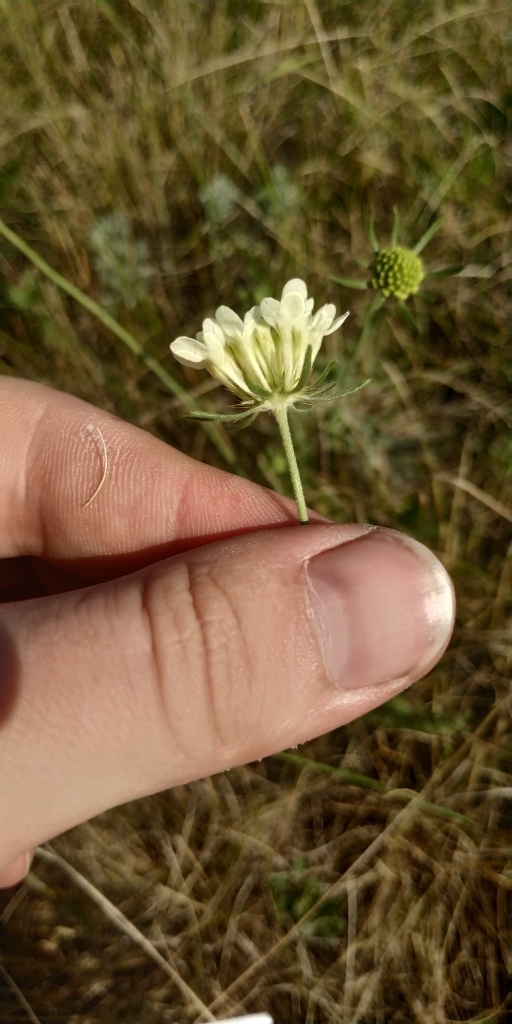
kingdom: Plantae
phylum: Tracheophyta
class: Magnoliopsida
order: Dipsacales
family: Caprifoliaceae
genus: Scabiosa
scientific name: Scabiosa ochroleuca
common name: Cream pincushions
